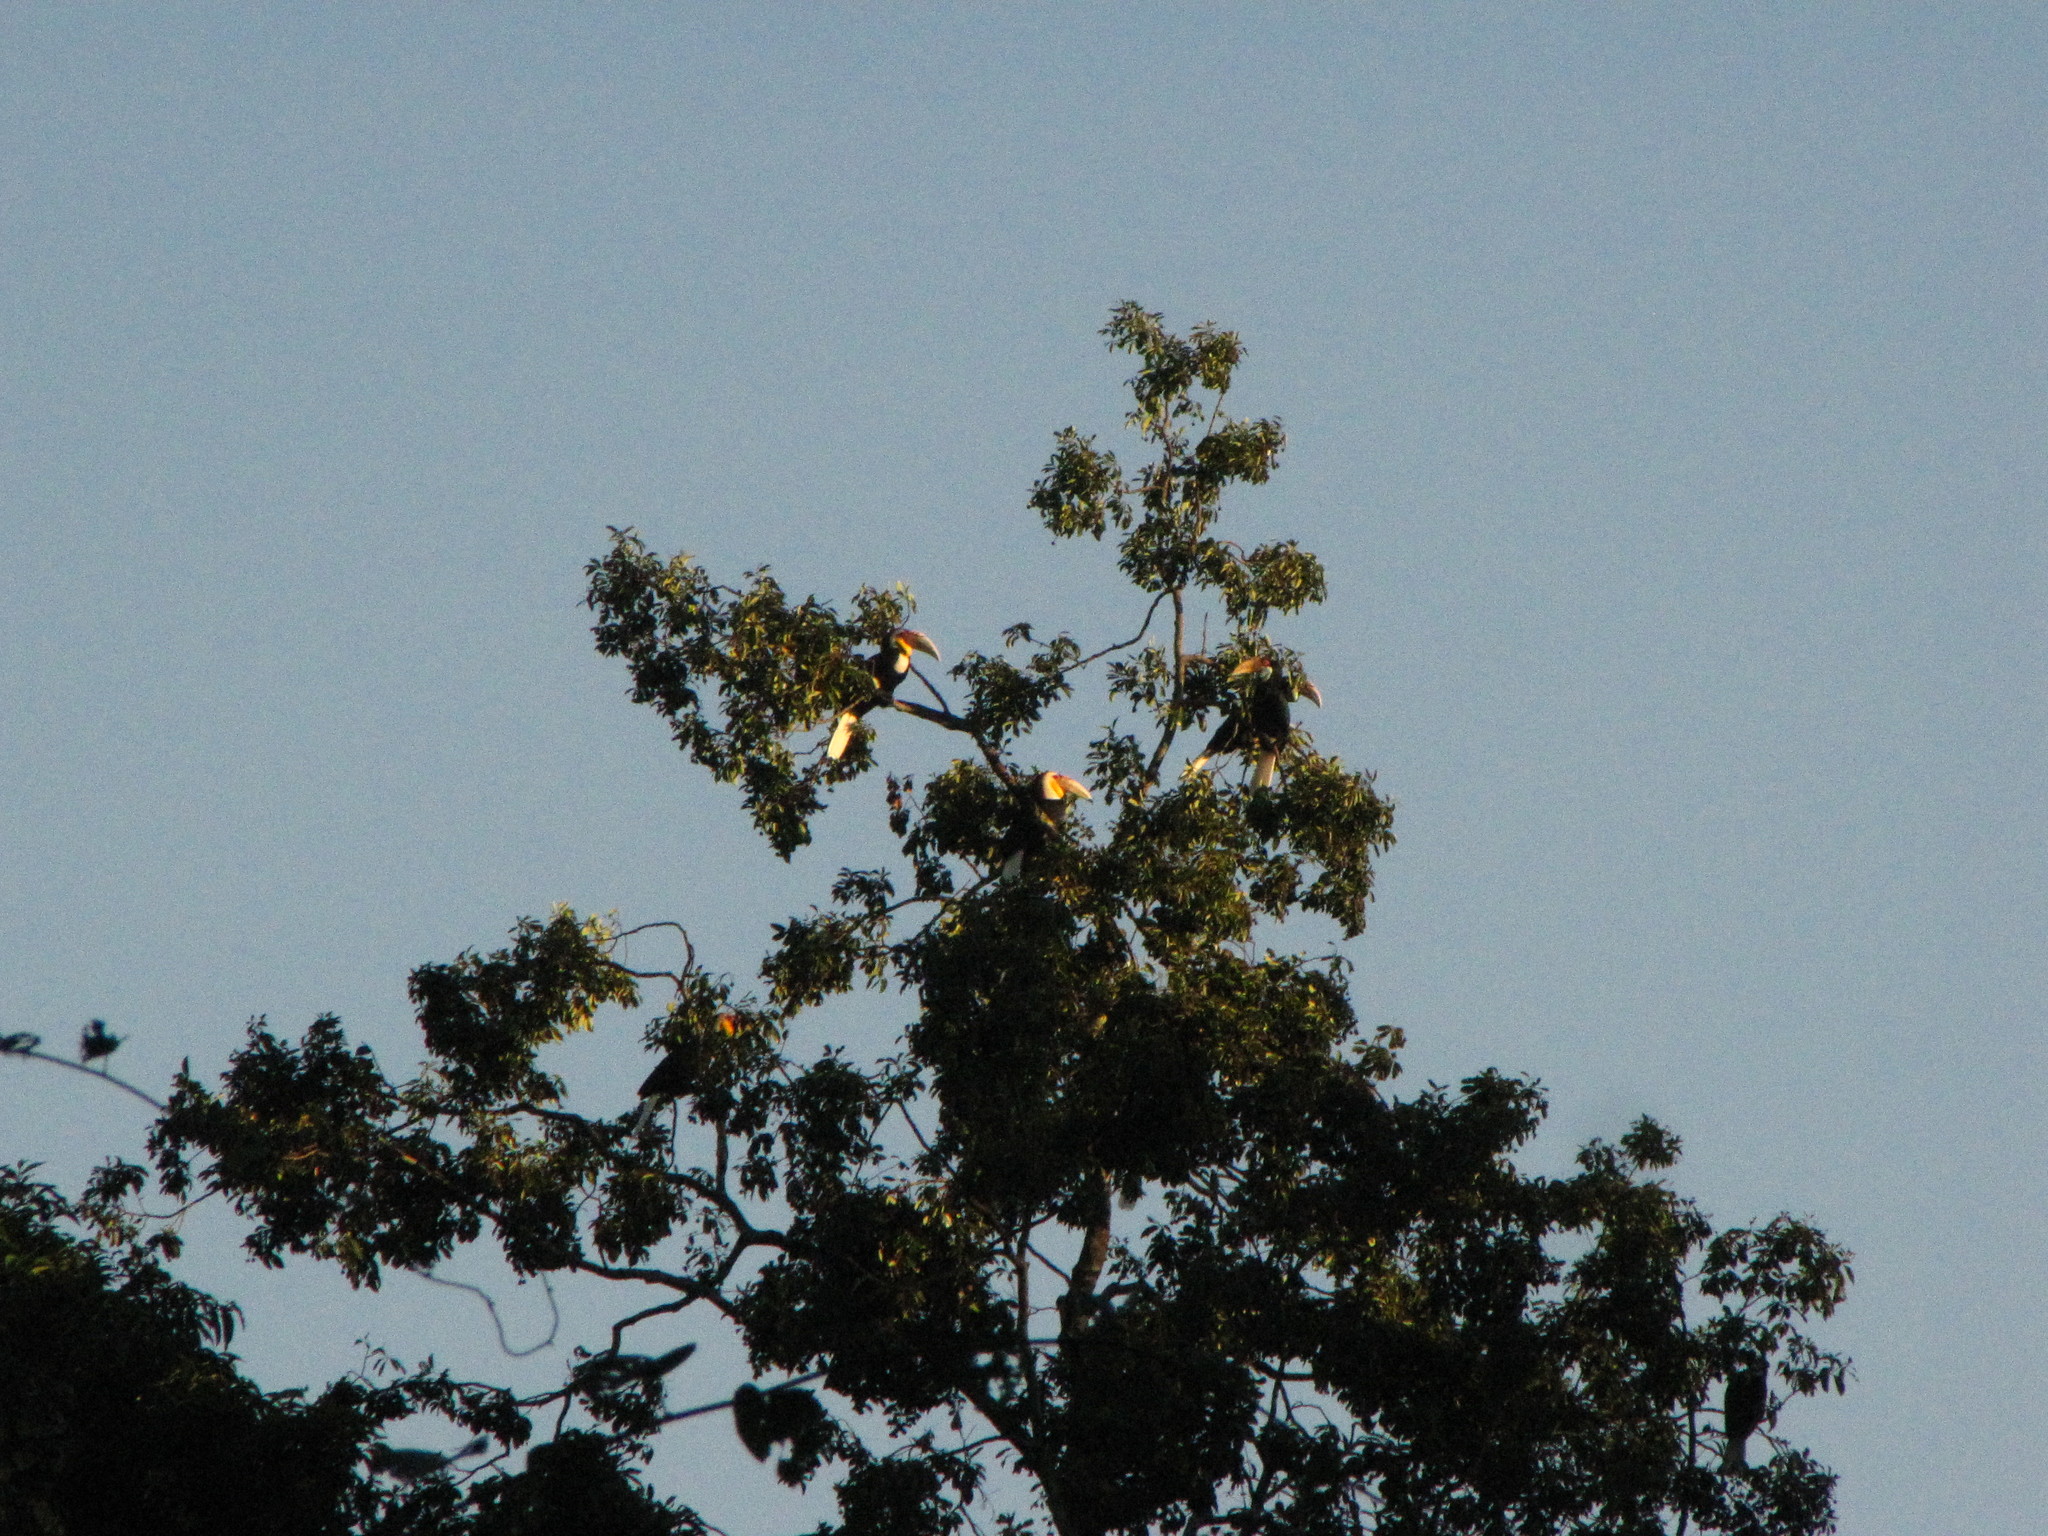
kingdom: Animalia
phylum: Chordata
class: Aves
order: Bucerotiformes
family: Bucerotidae
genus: Rhyticeros
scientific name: Rhyticeros undulatus
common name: Wreathed hornbill
